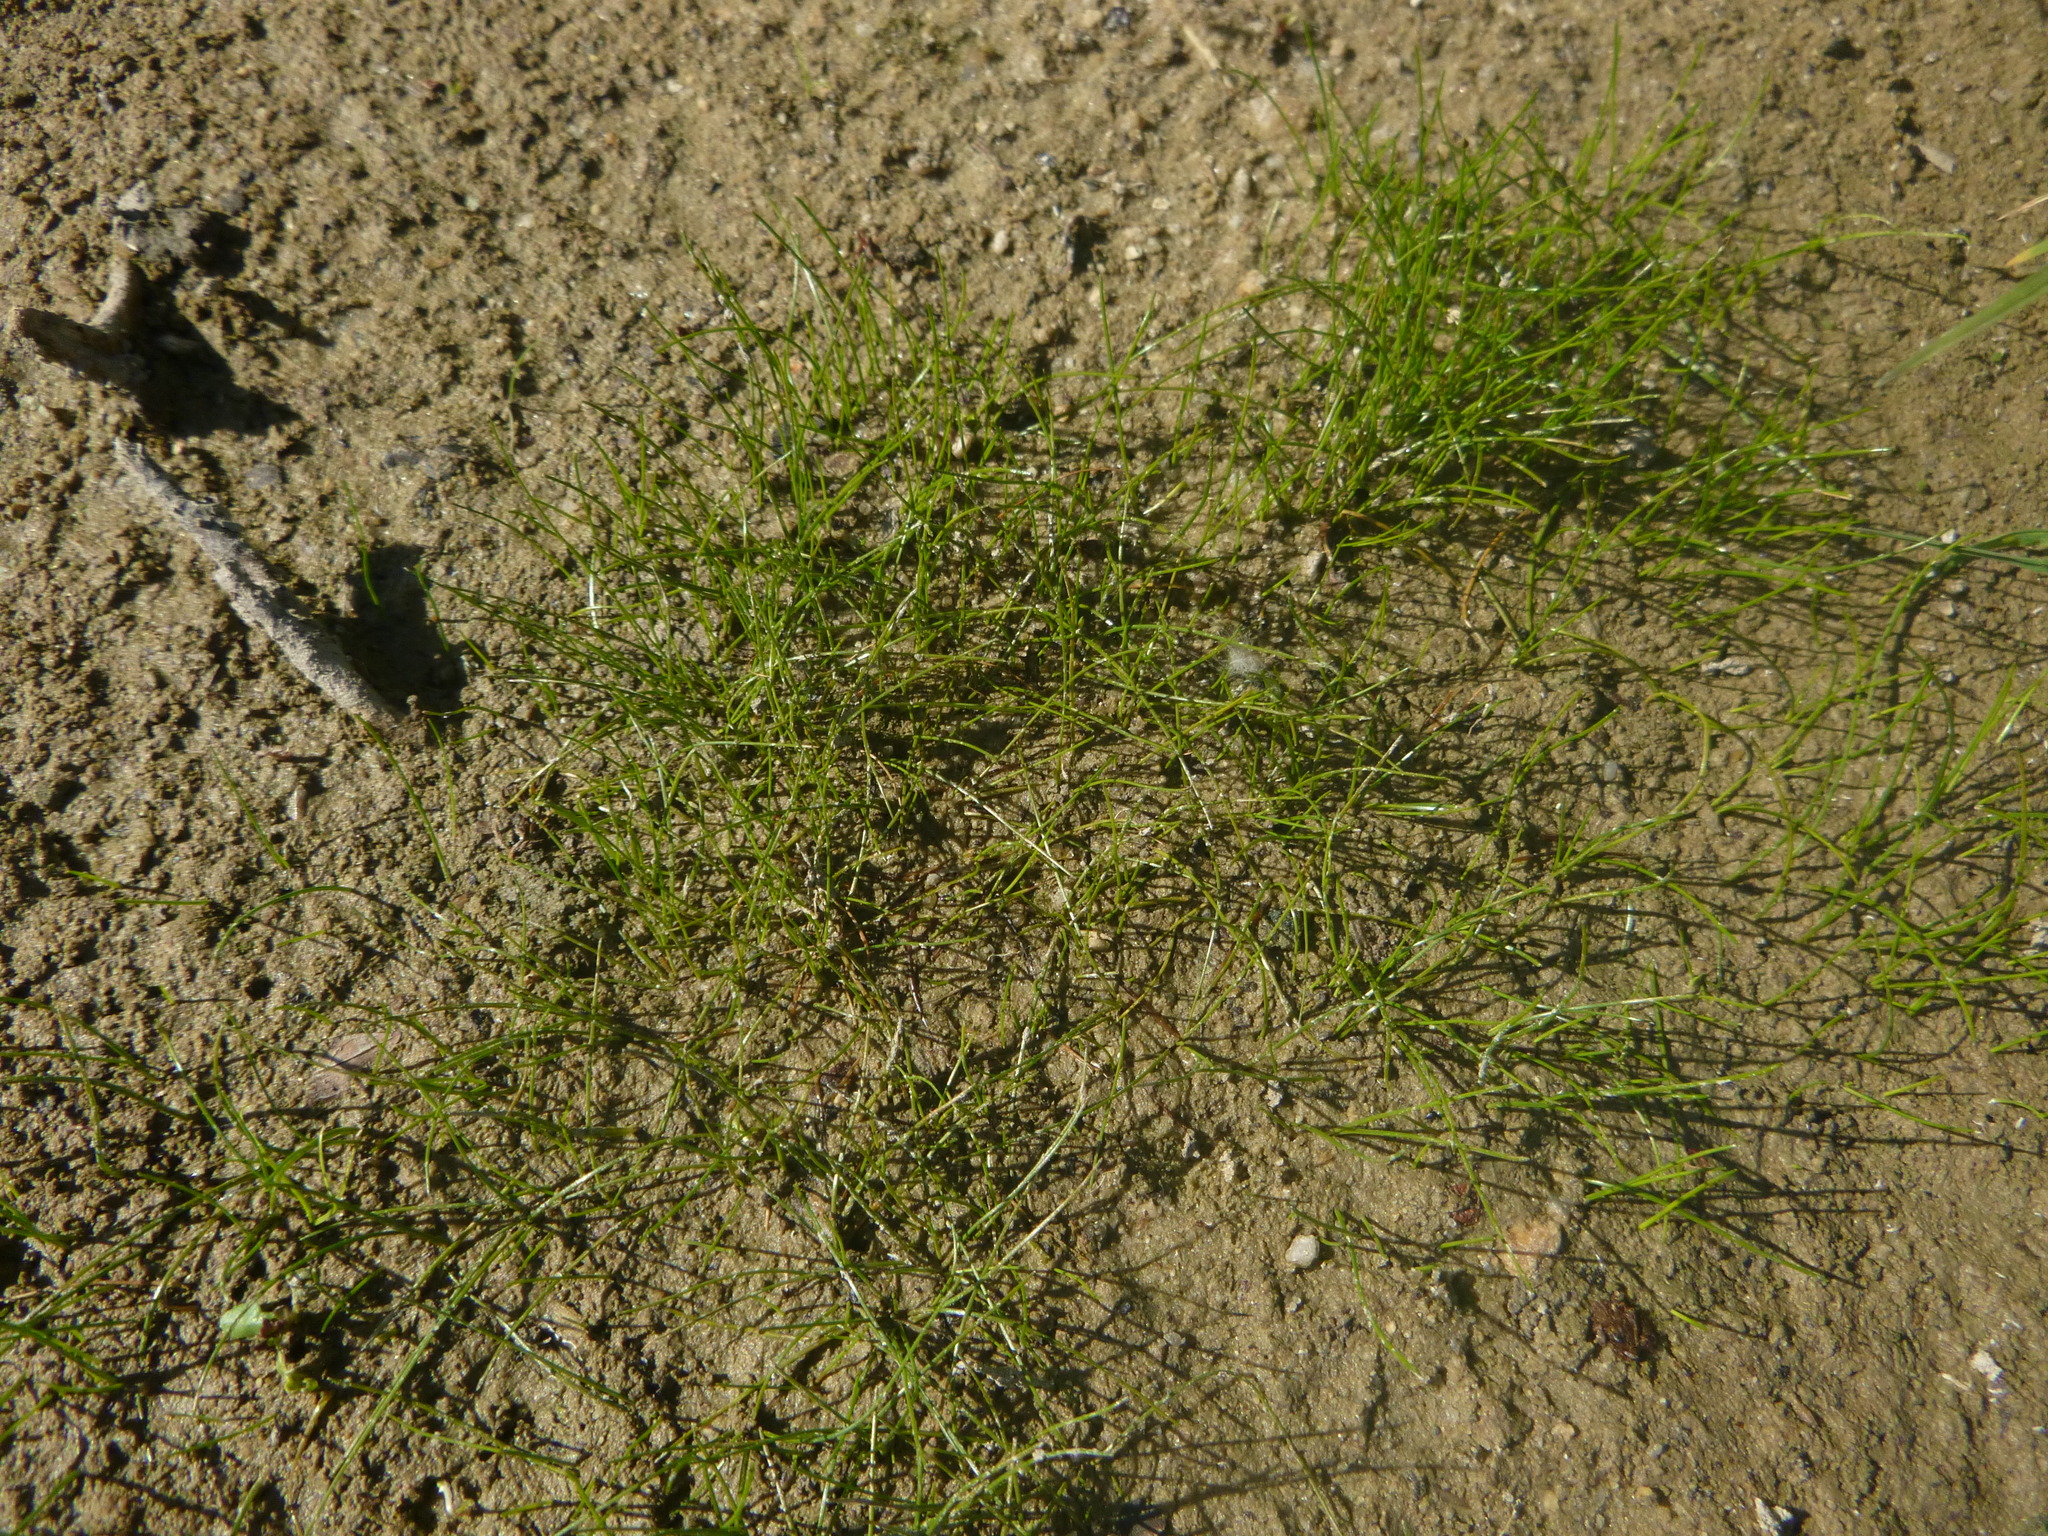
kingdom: Plantae
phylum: Tracheophyta
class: Liliopsida
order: Poales
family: Cyperaceae
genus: Eleocharis
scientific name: Eleocharis acicularis
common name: Needle spike-rush
